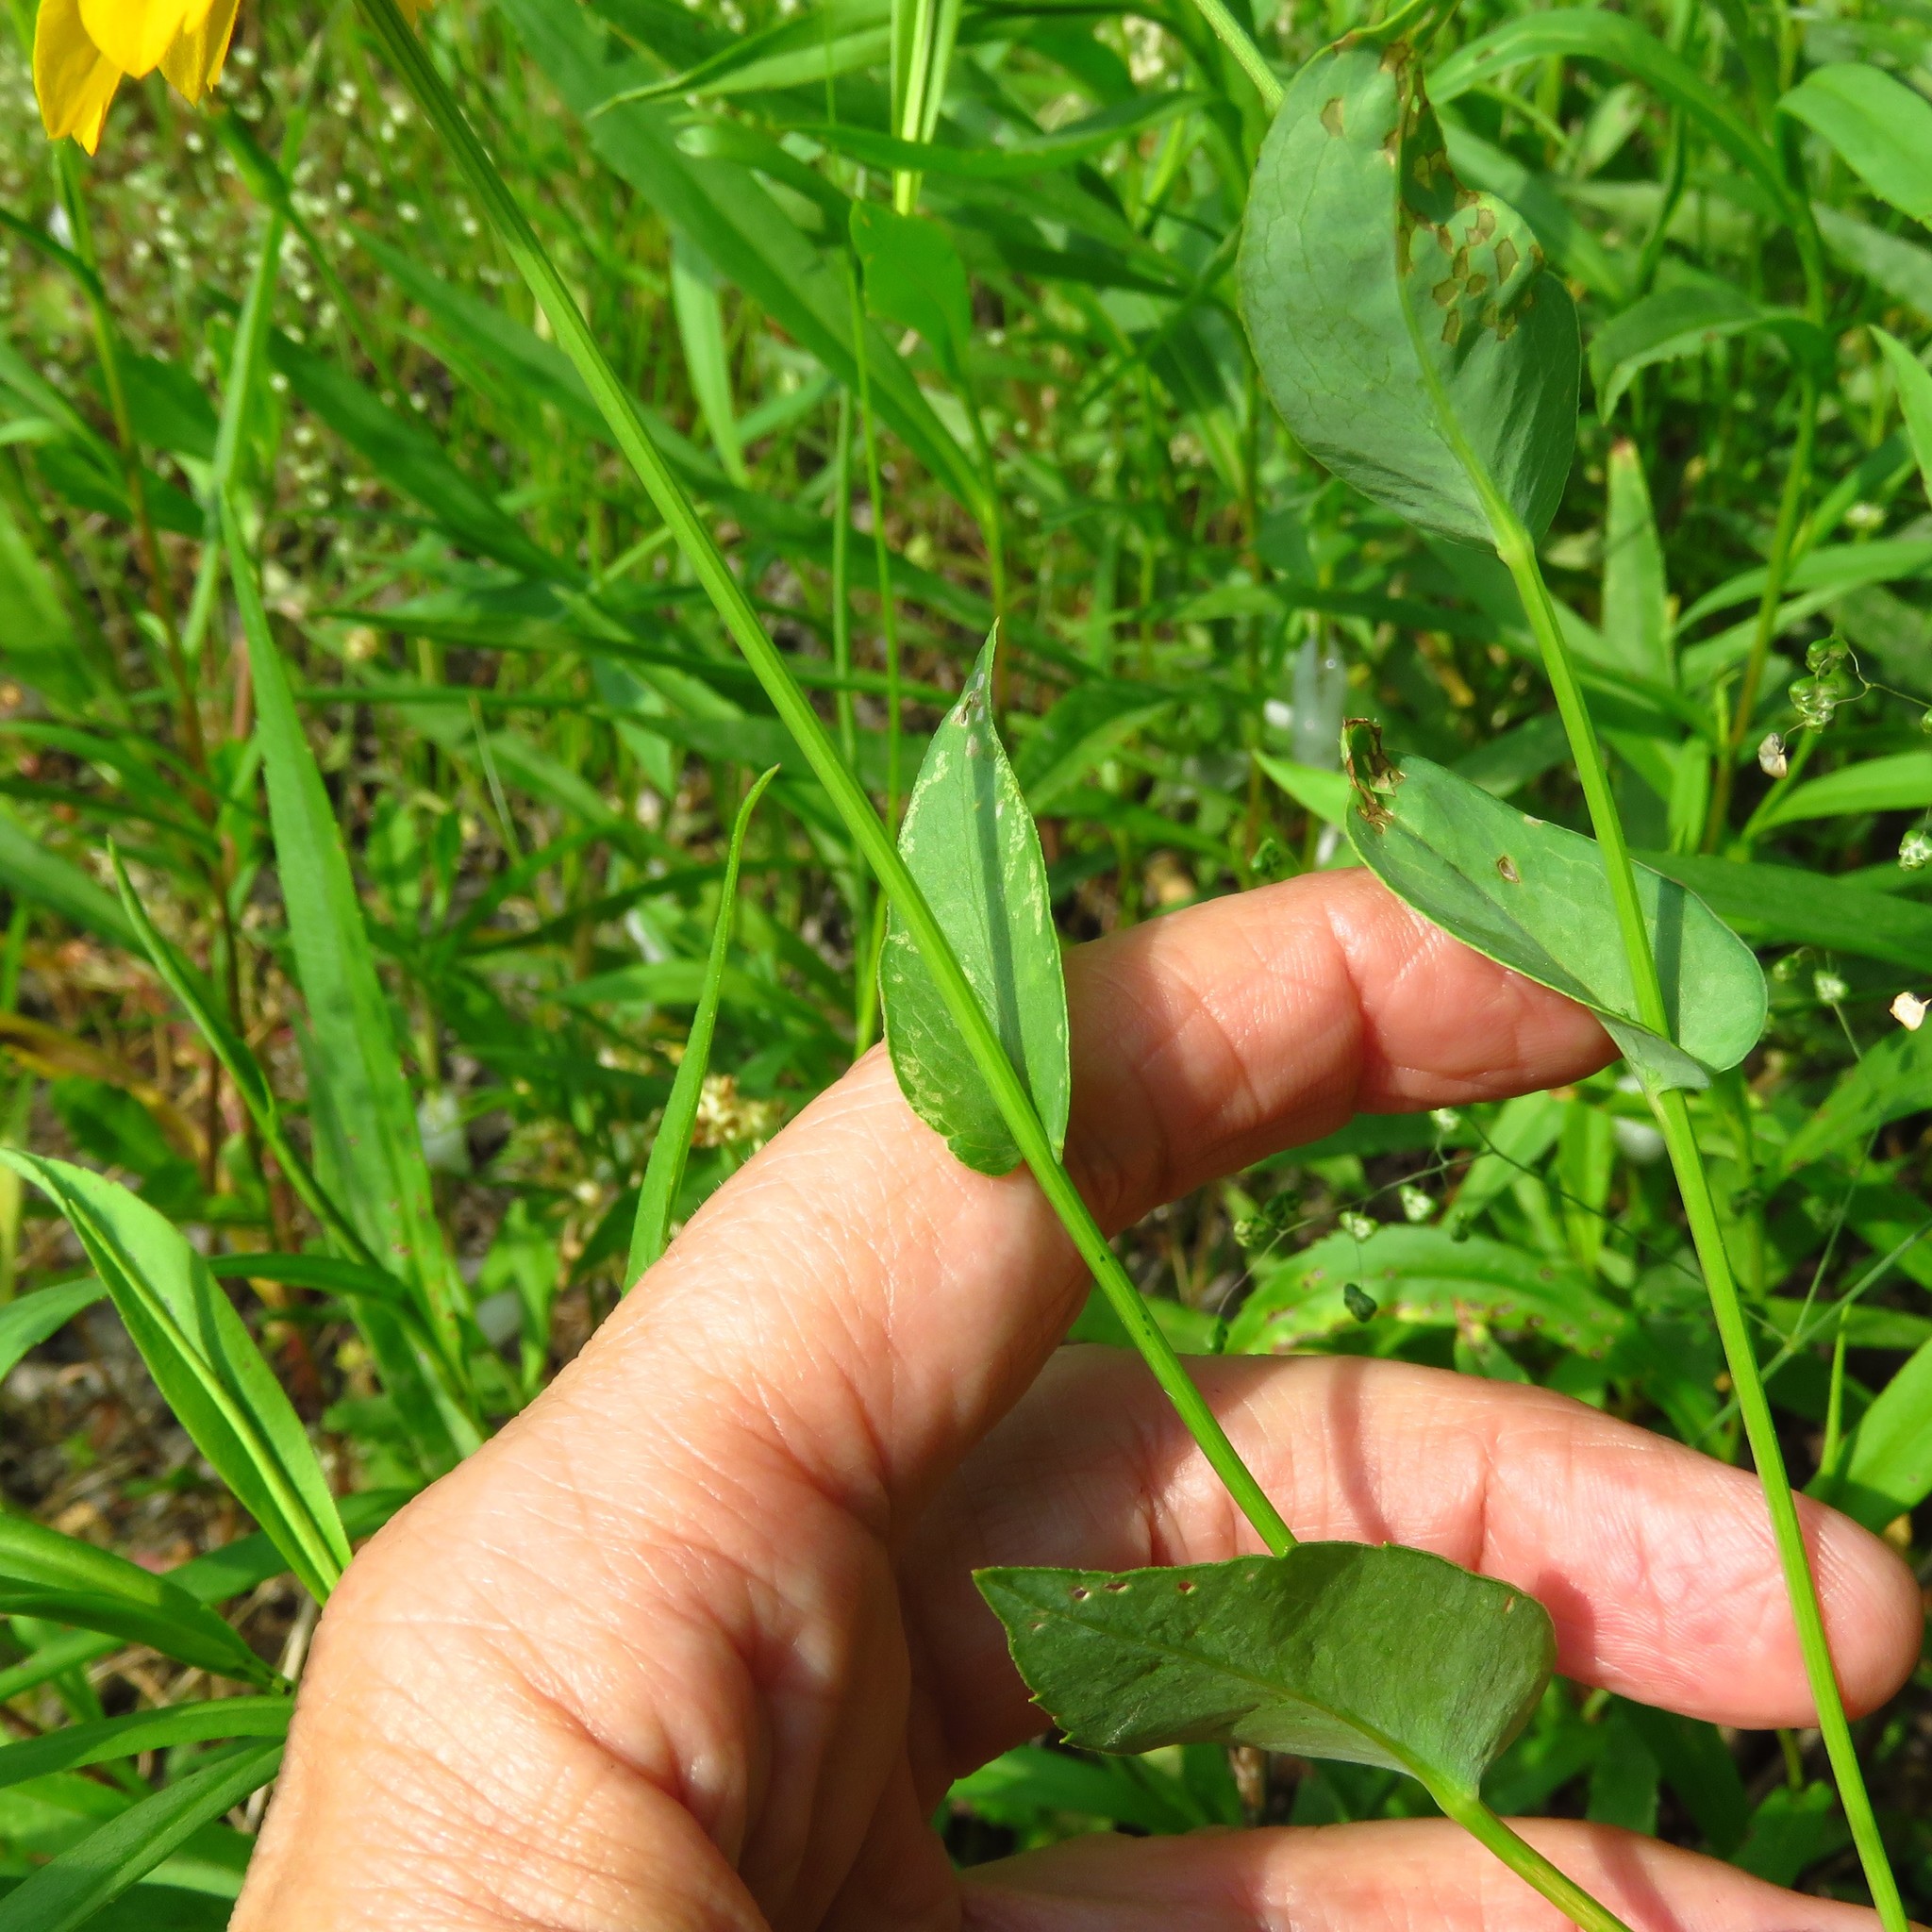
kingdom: Plantae
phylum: Tracheophyta
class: Magnoliopsida
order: Asterales
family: Asteraceae
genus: Rudbeckia
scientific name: Rudbeckia amplexicaulis
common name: Clasping-leaf coneflower
